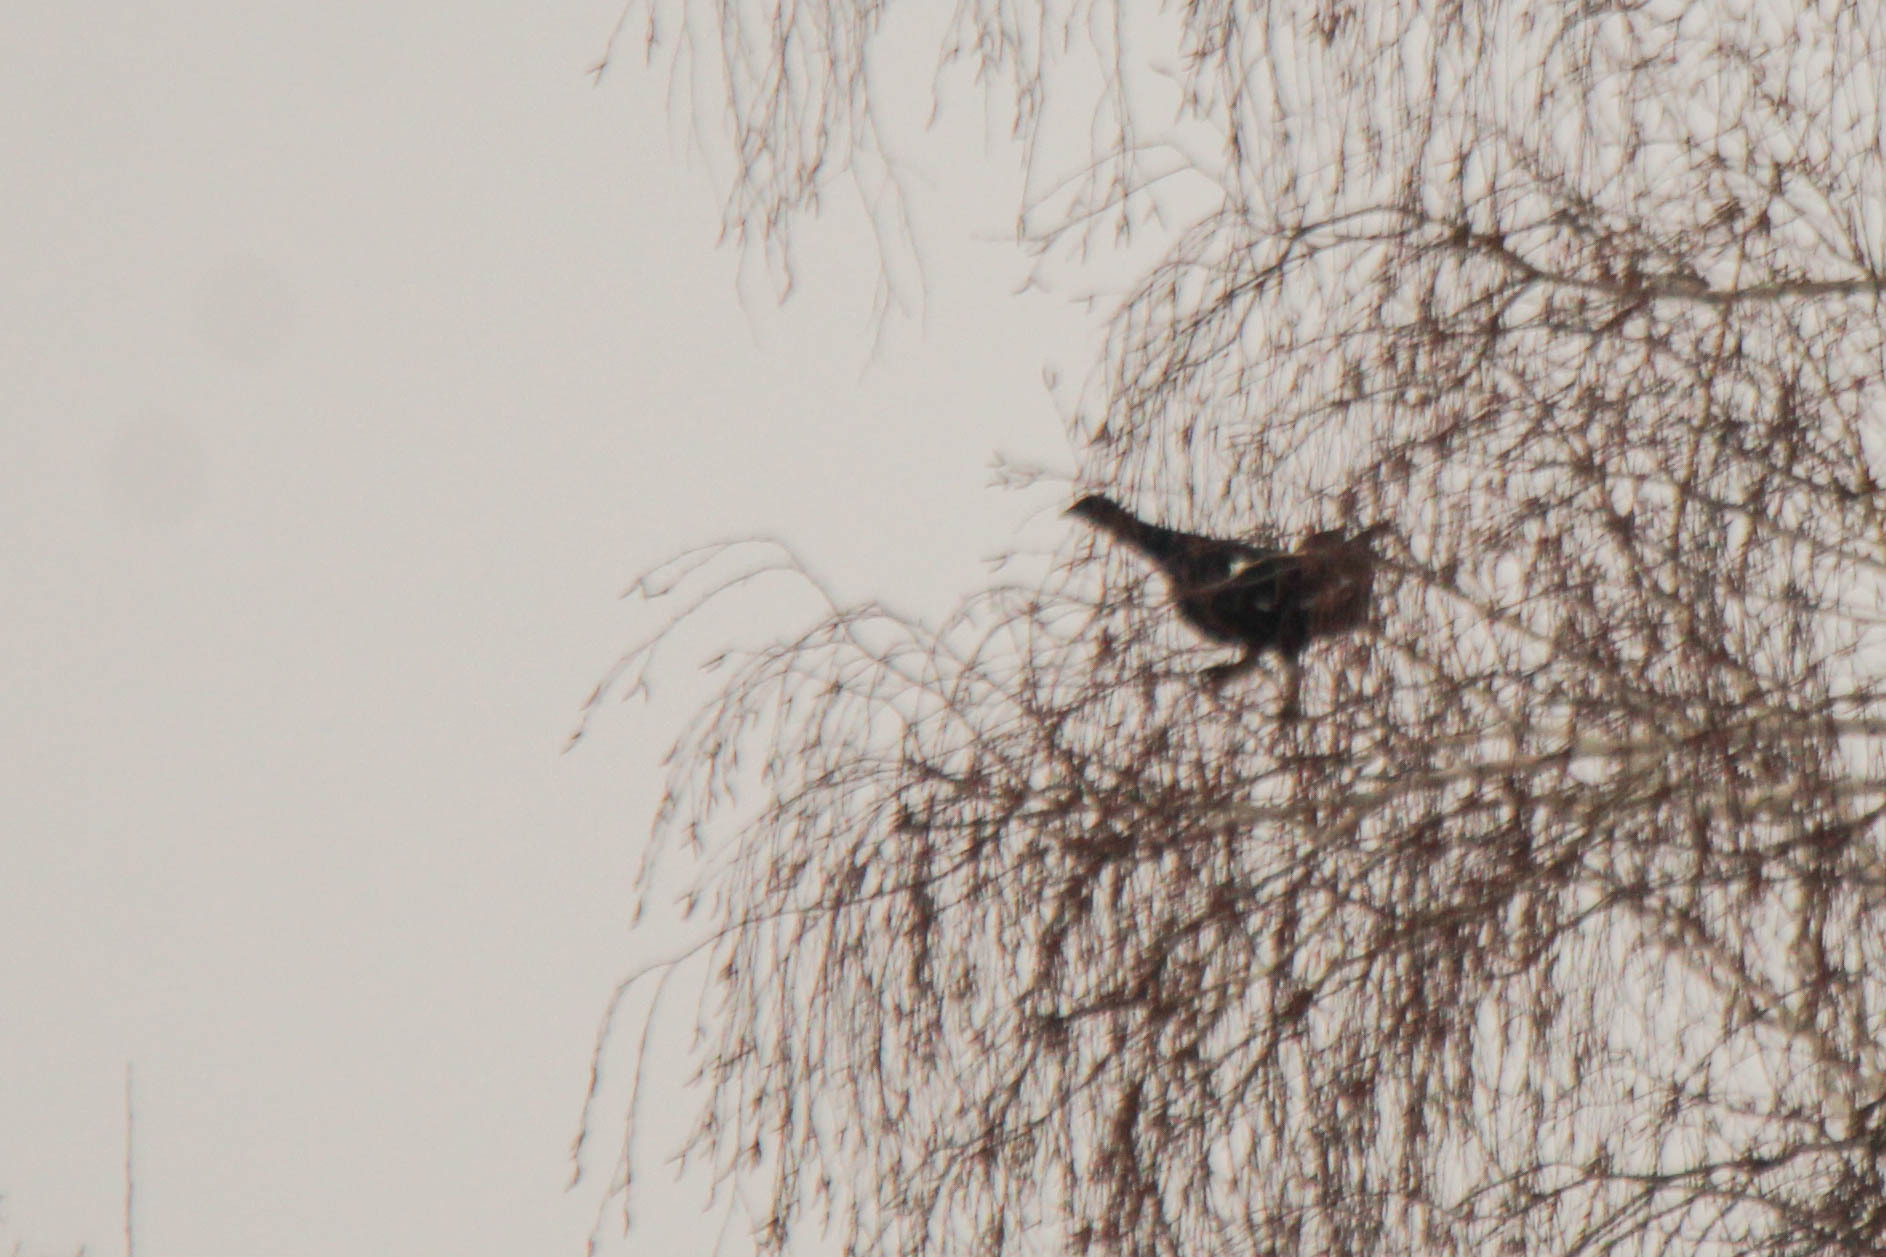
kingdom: Animalia
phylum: Chordata
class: Aves
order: Galliformes
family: Phasianidae
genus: Lyrurus
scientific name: Lyrurus tetrix
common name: Black grouse
